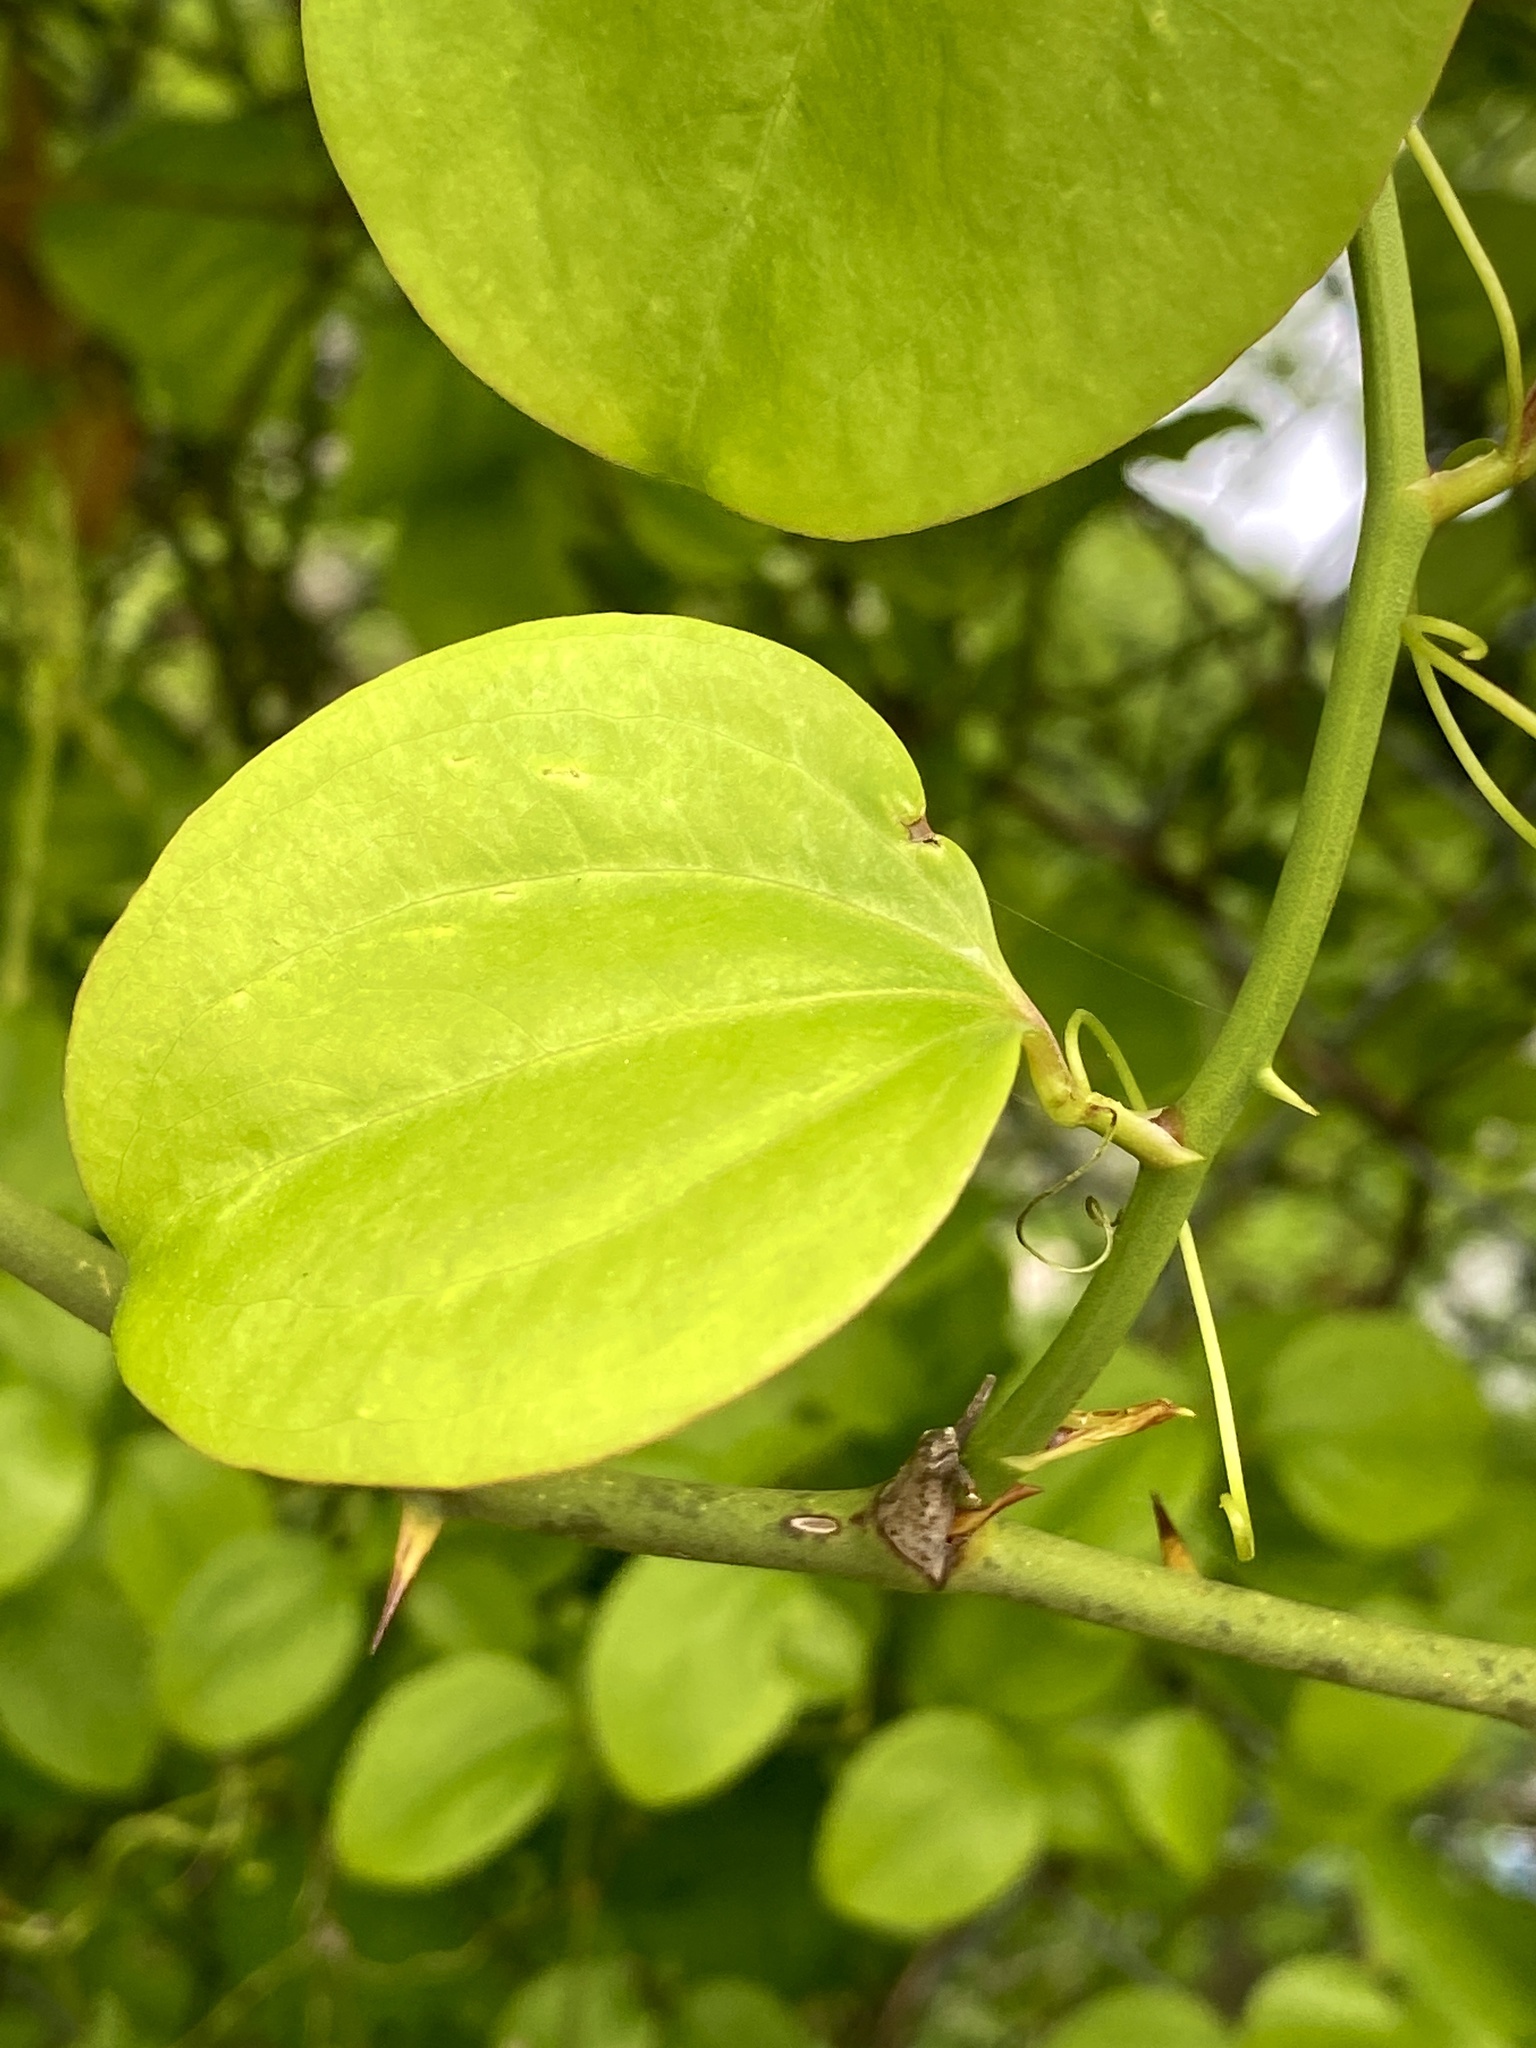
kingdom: Plantae
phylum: Tracheophyta
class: Liliopsida
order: Liliales
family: Smilacaceae
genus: Smilax
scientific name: Smilax rotundifolia
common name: Bullbriar
